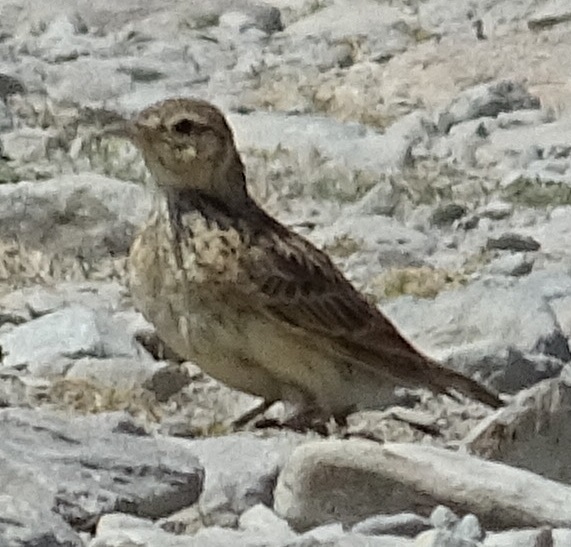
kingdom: Animalia
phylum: Chordata
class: Aves
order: Passeriformes
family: Alaudidae
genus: Alauda
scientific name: Alauda arvensis
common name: Eurasian skylark
